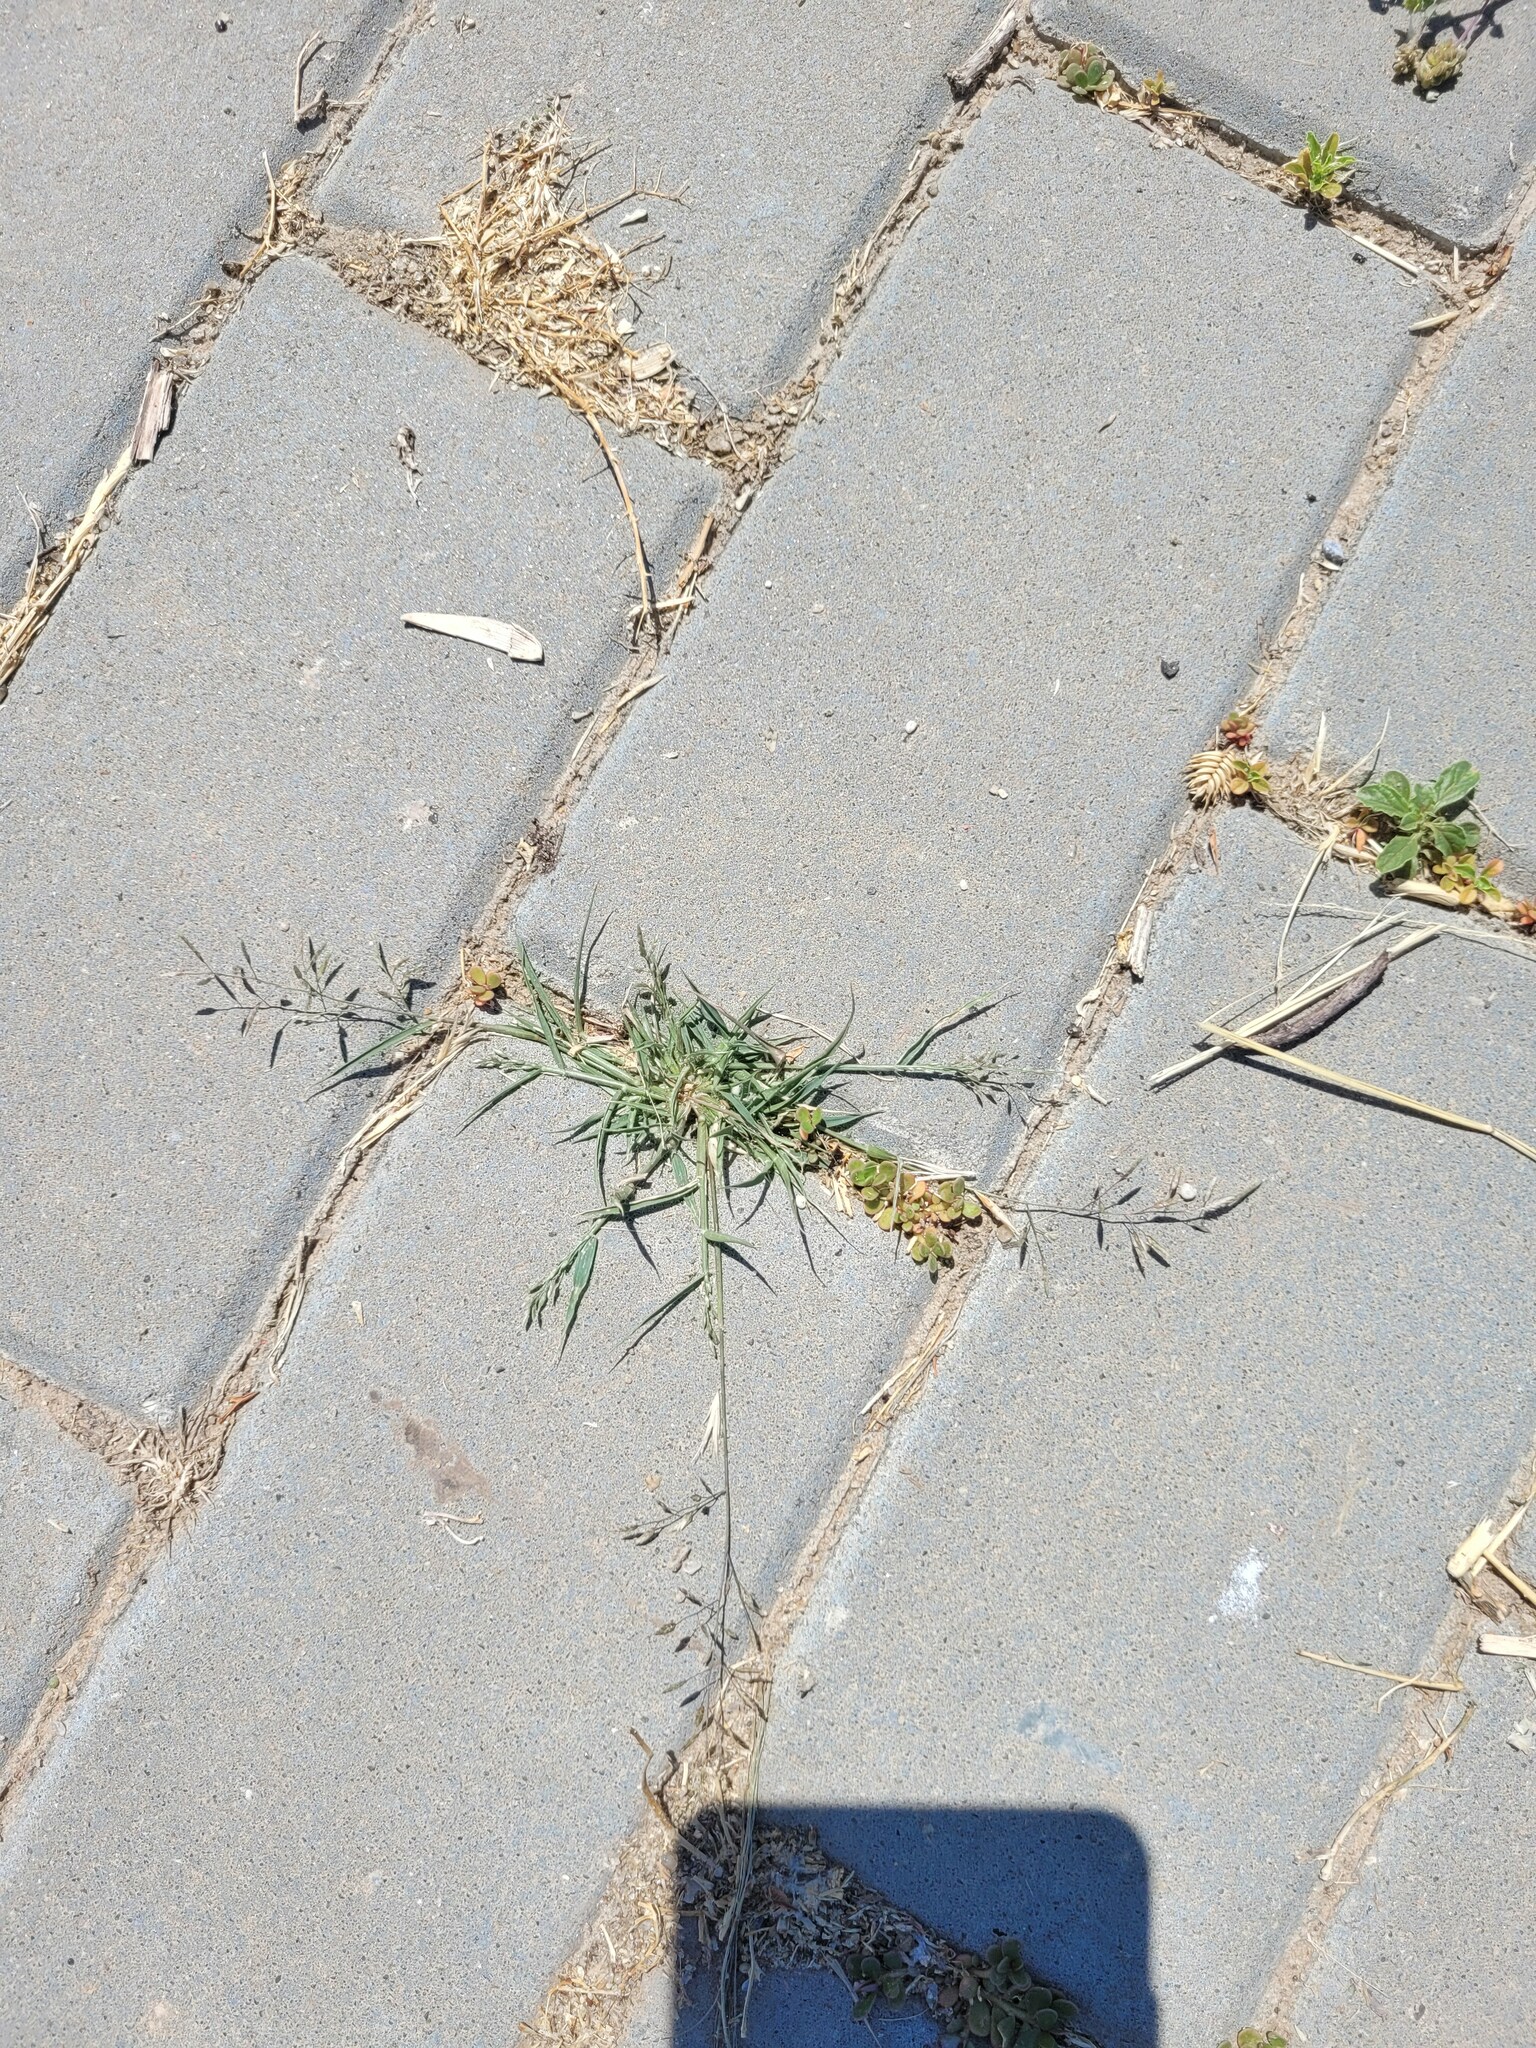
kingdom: Plantae
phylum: Tracheophyta
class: Liliopsida
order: Poales
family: Poaceae
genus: Eragrostis
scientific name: Eragrostis minor
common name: Small love-grass
